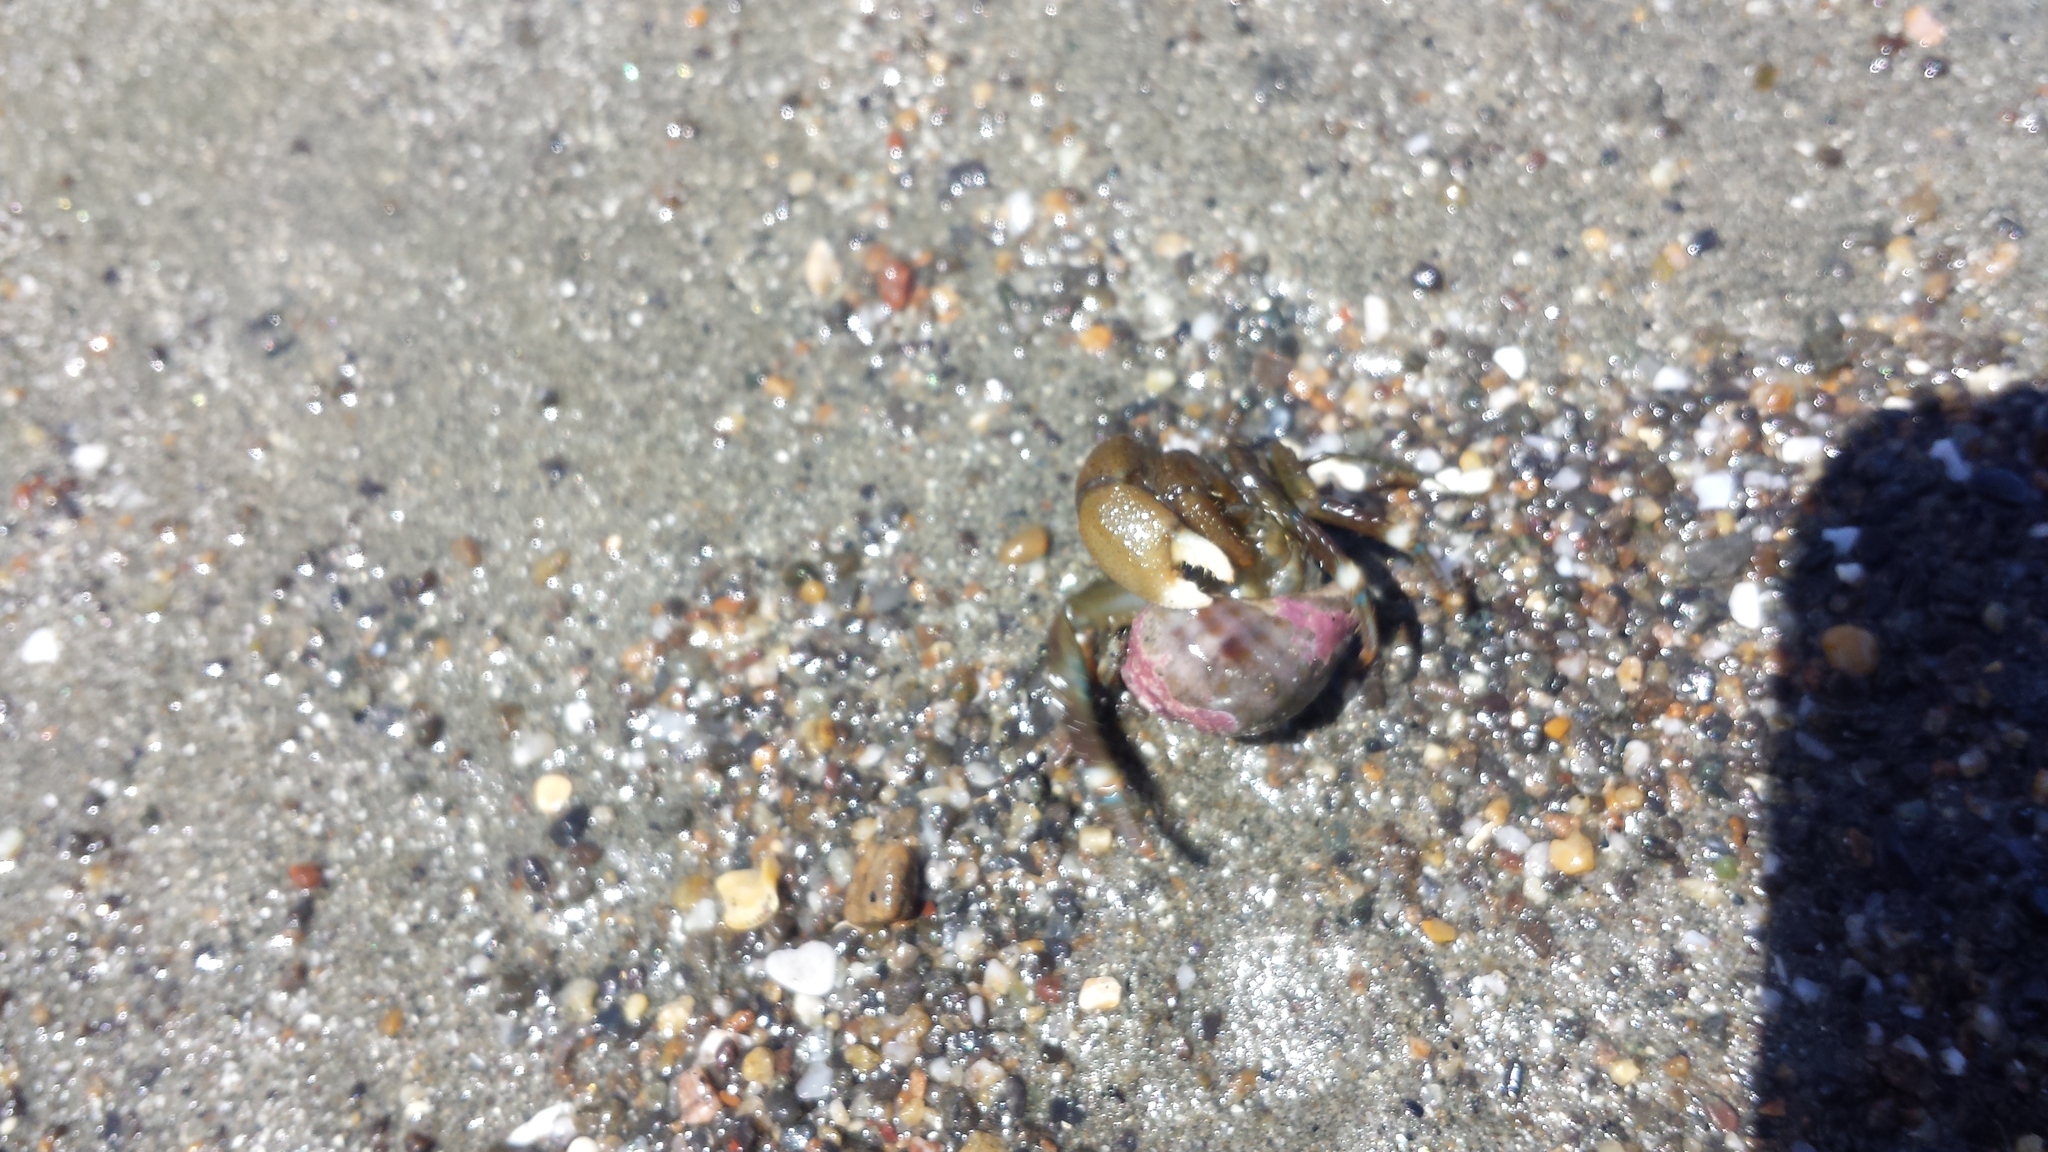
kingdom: Animalia
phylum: Arthropoda
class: Malacostraca
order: Decapoda
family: Paguridae
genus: Pagurus
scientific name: Pagurus hirsutiusculus
